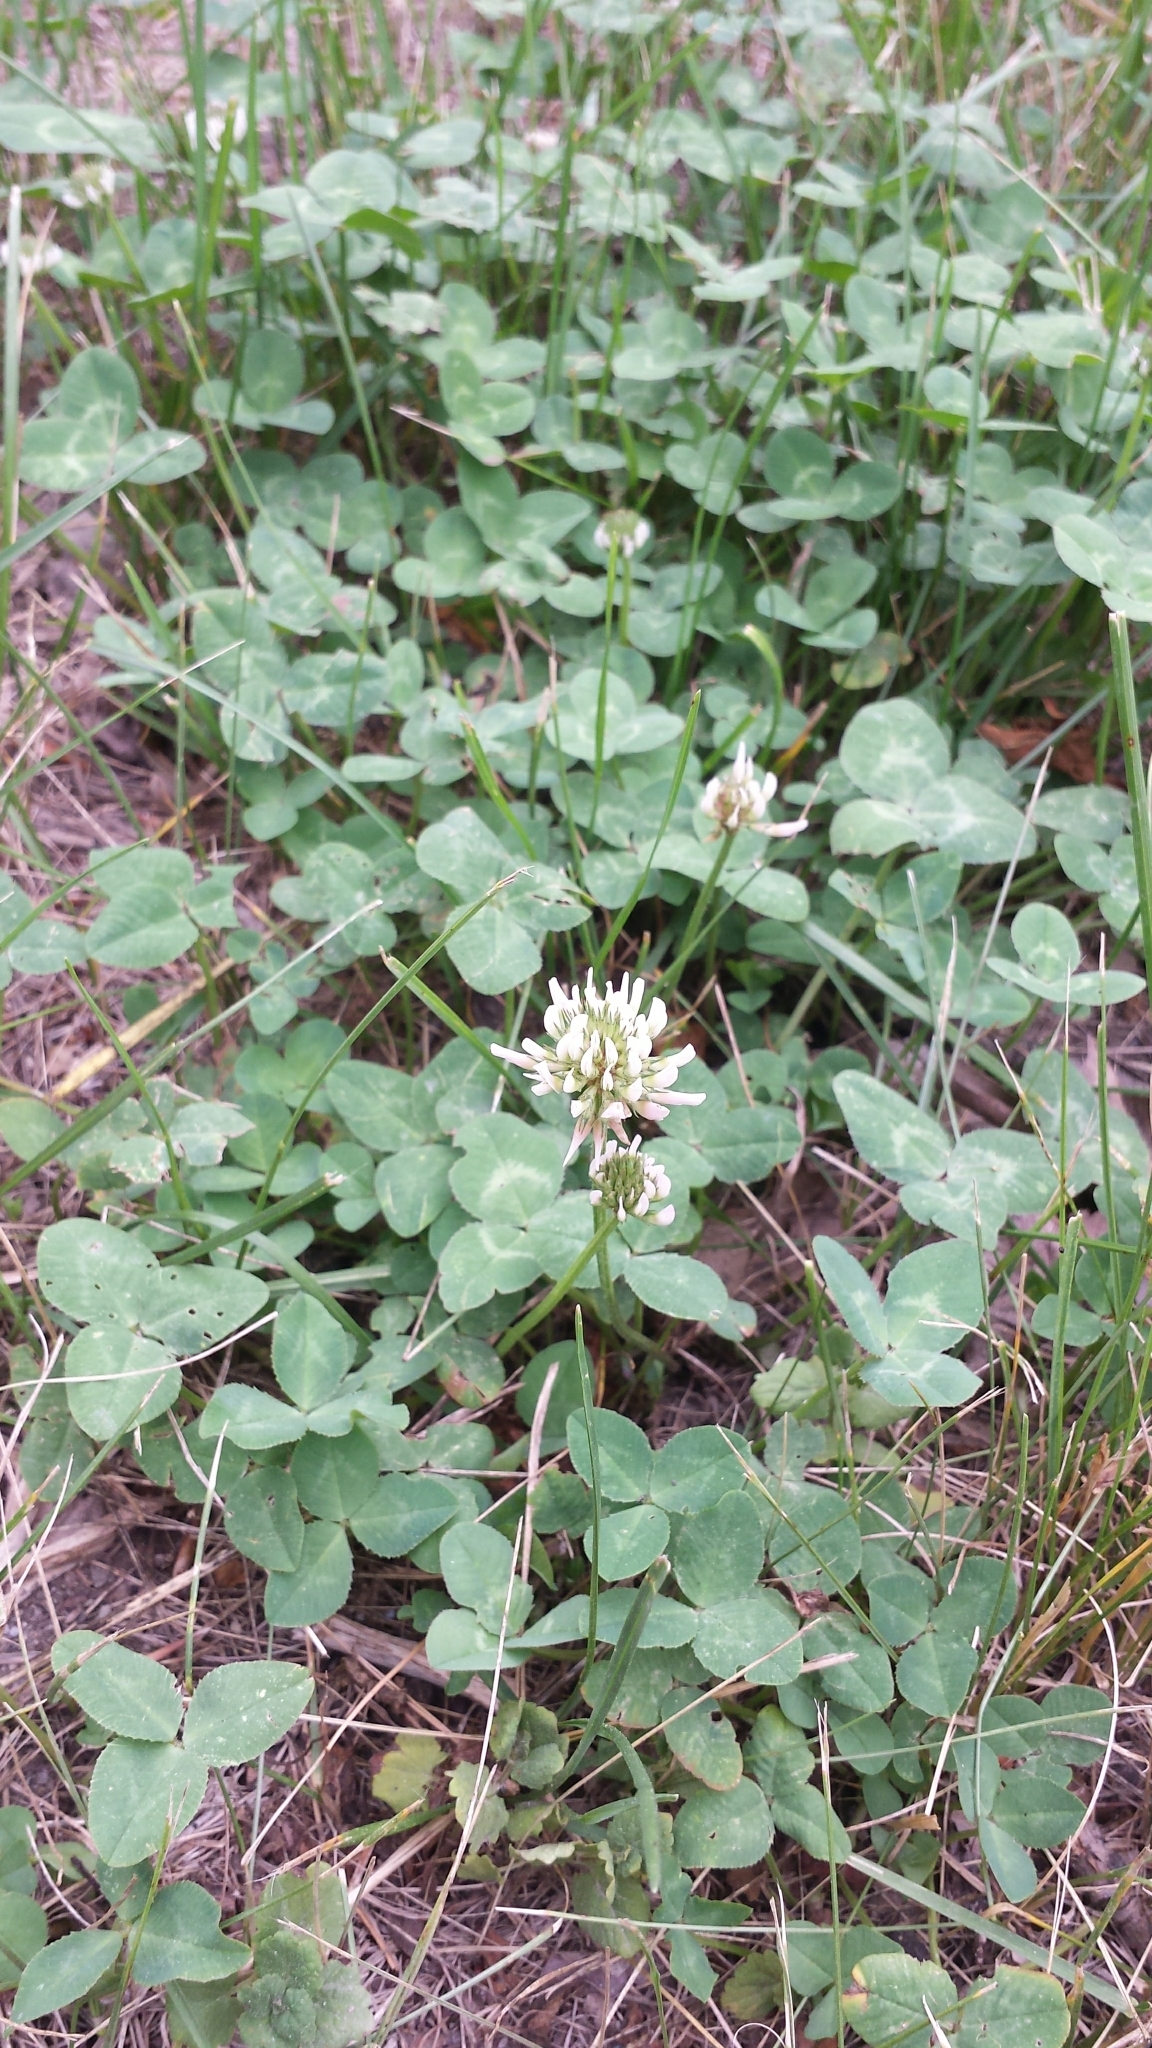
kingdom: Plantae
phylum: Tracheophyta
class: Magnoliopsida
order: Fabales
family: Fabaceae
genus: Trifolium
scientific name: Trifolium repens
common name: White clover
